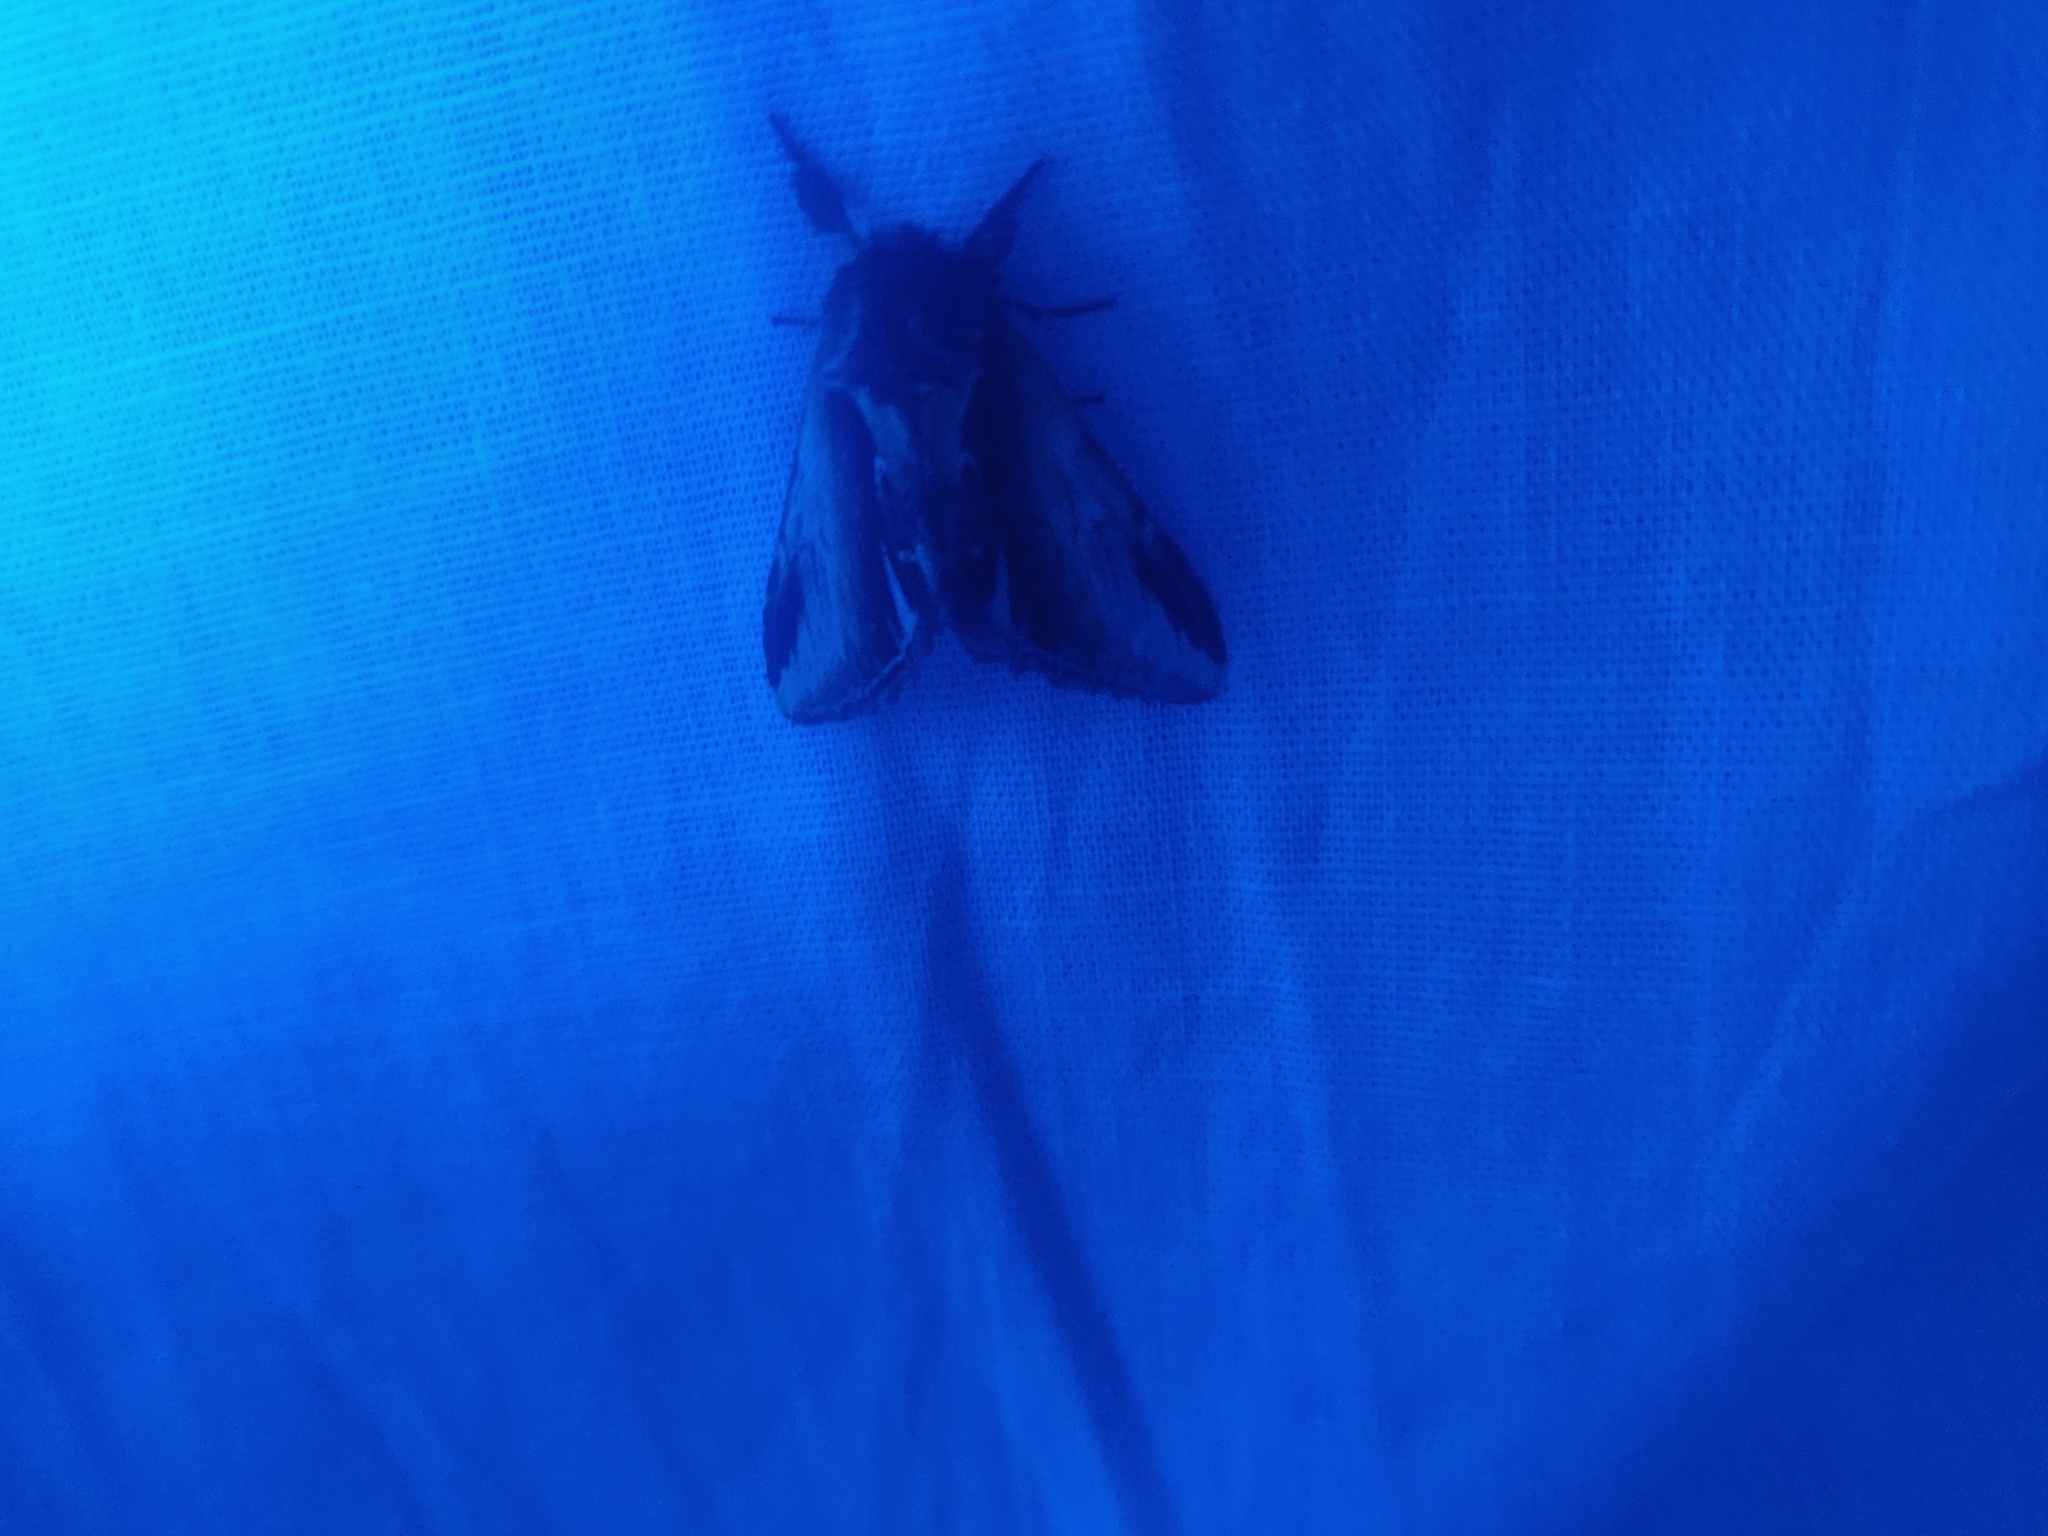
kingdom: Animalia
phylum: Arthropoda
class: Insecta
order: Lepidoptera
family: Notodontidae
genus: Pheosia
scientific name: Pheosia gnoma
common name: Lesser swallow prominent
